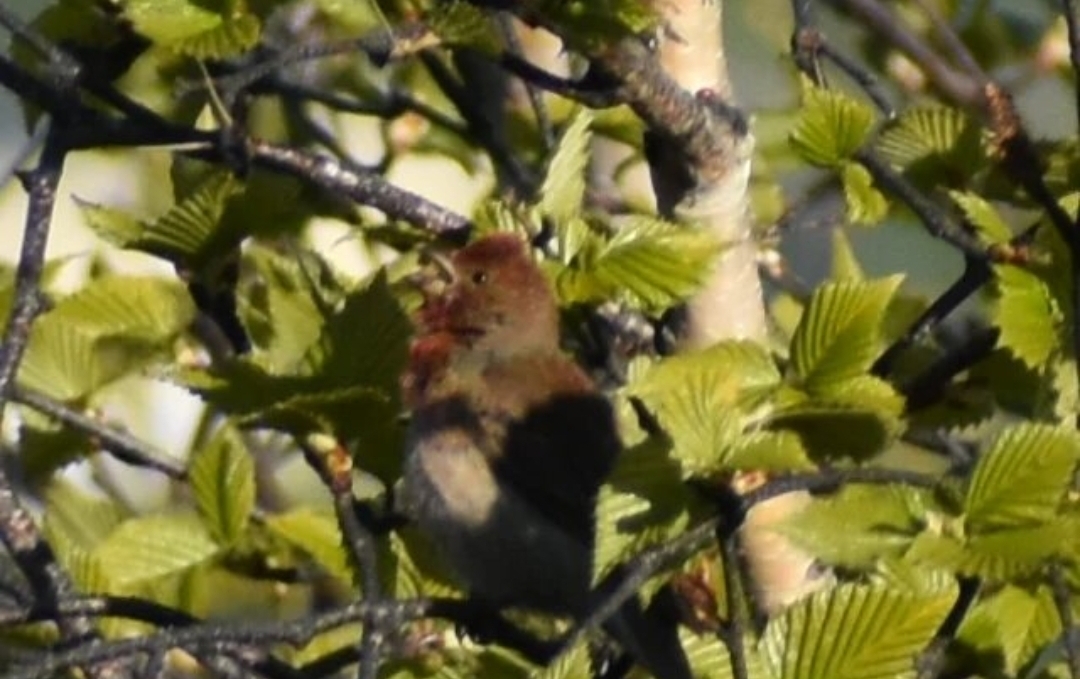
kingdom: Animalia
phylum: Chordata
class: Aves
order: Passeriformes
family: Fringillidae
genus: Carpodacus
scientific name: Carpodacus erythrinus
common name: Common rosefinch
